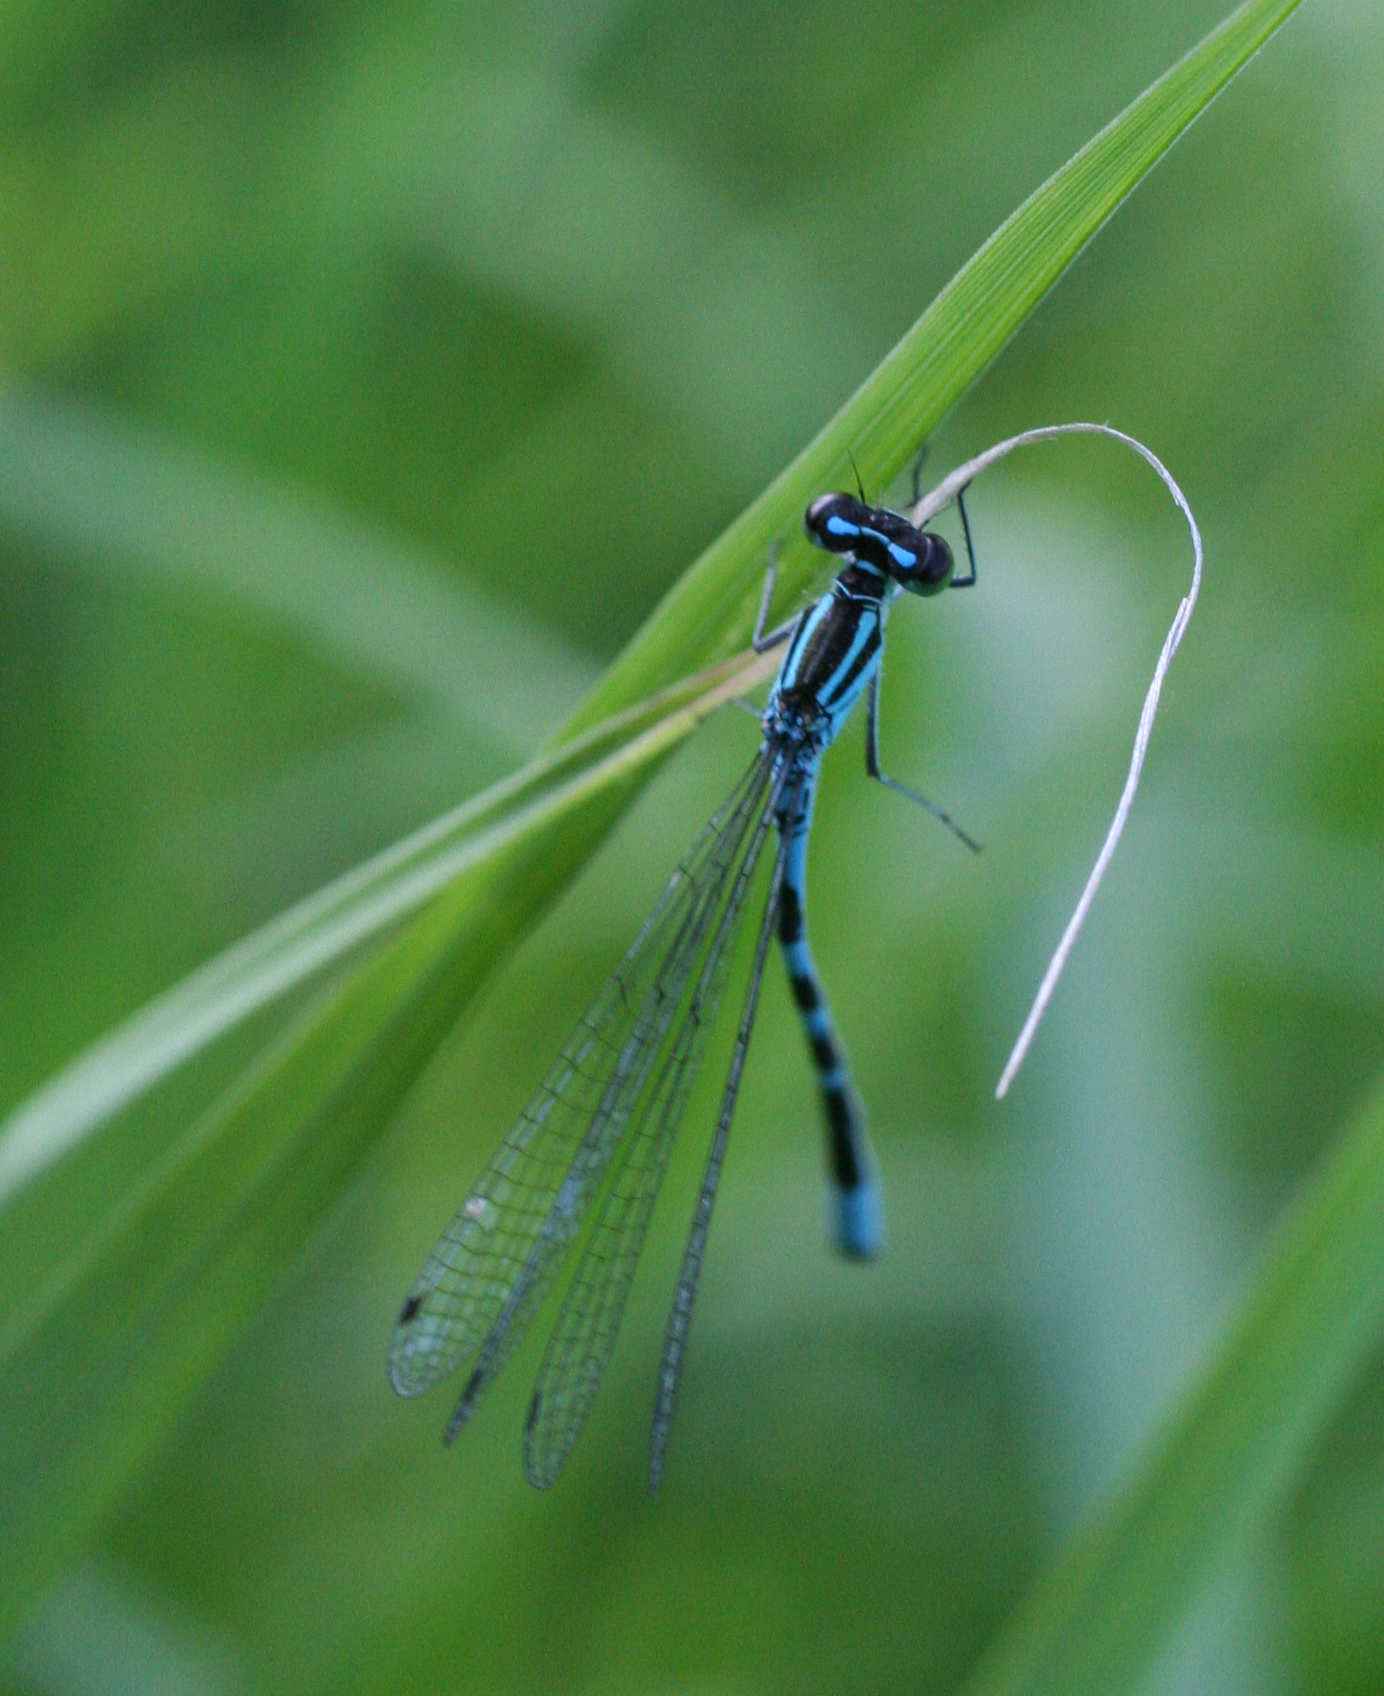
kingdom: Animalia
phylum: Arthropoda
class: Insecta
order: Odonata
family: Coenagrionidae
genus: Coenagrion
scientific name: Coenagrion hastulatum
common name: Spearhead bluet
